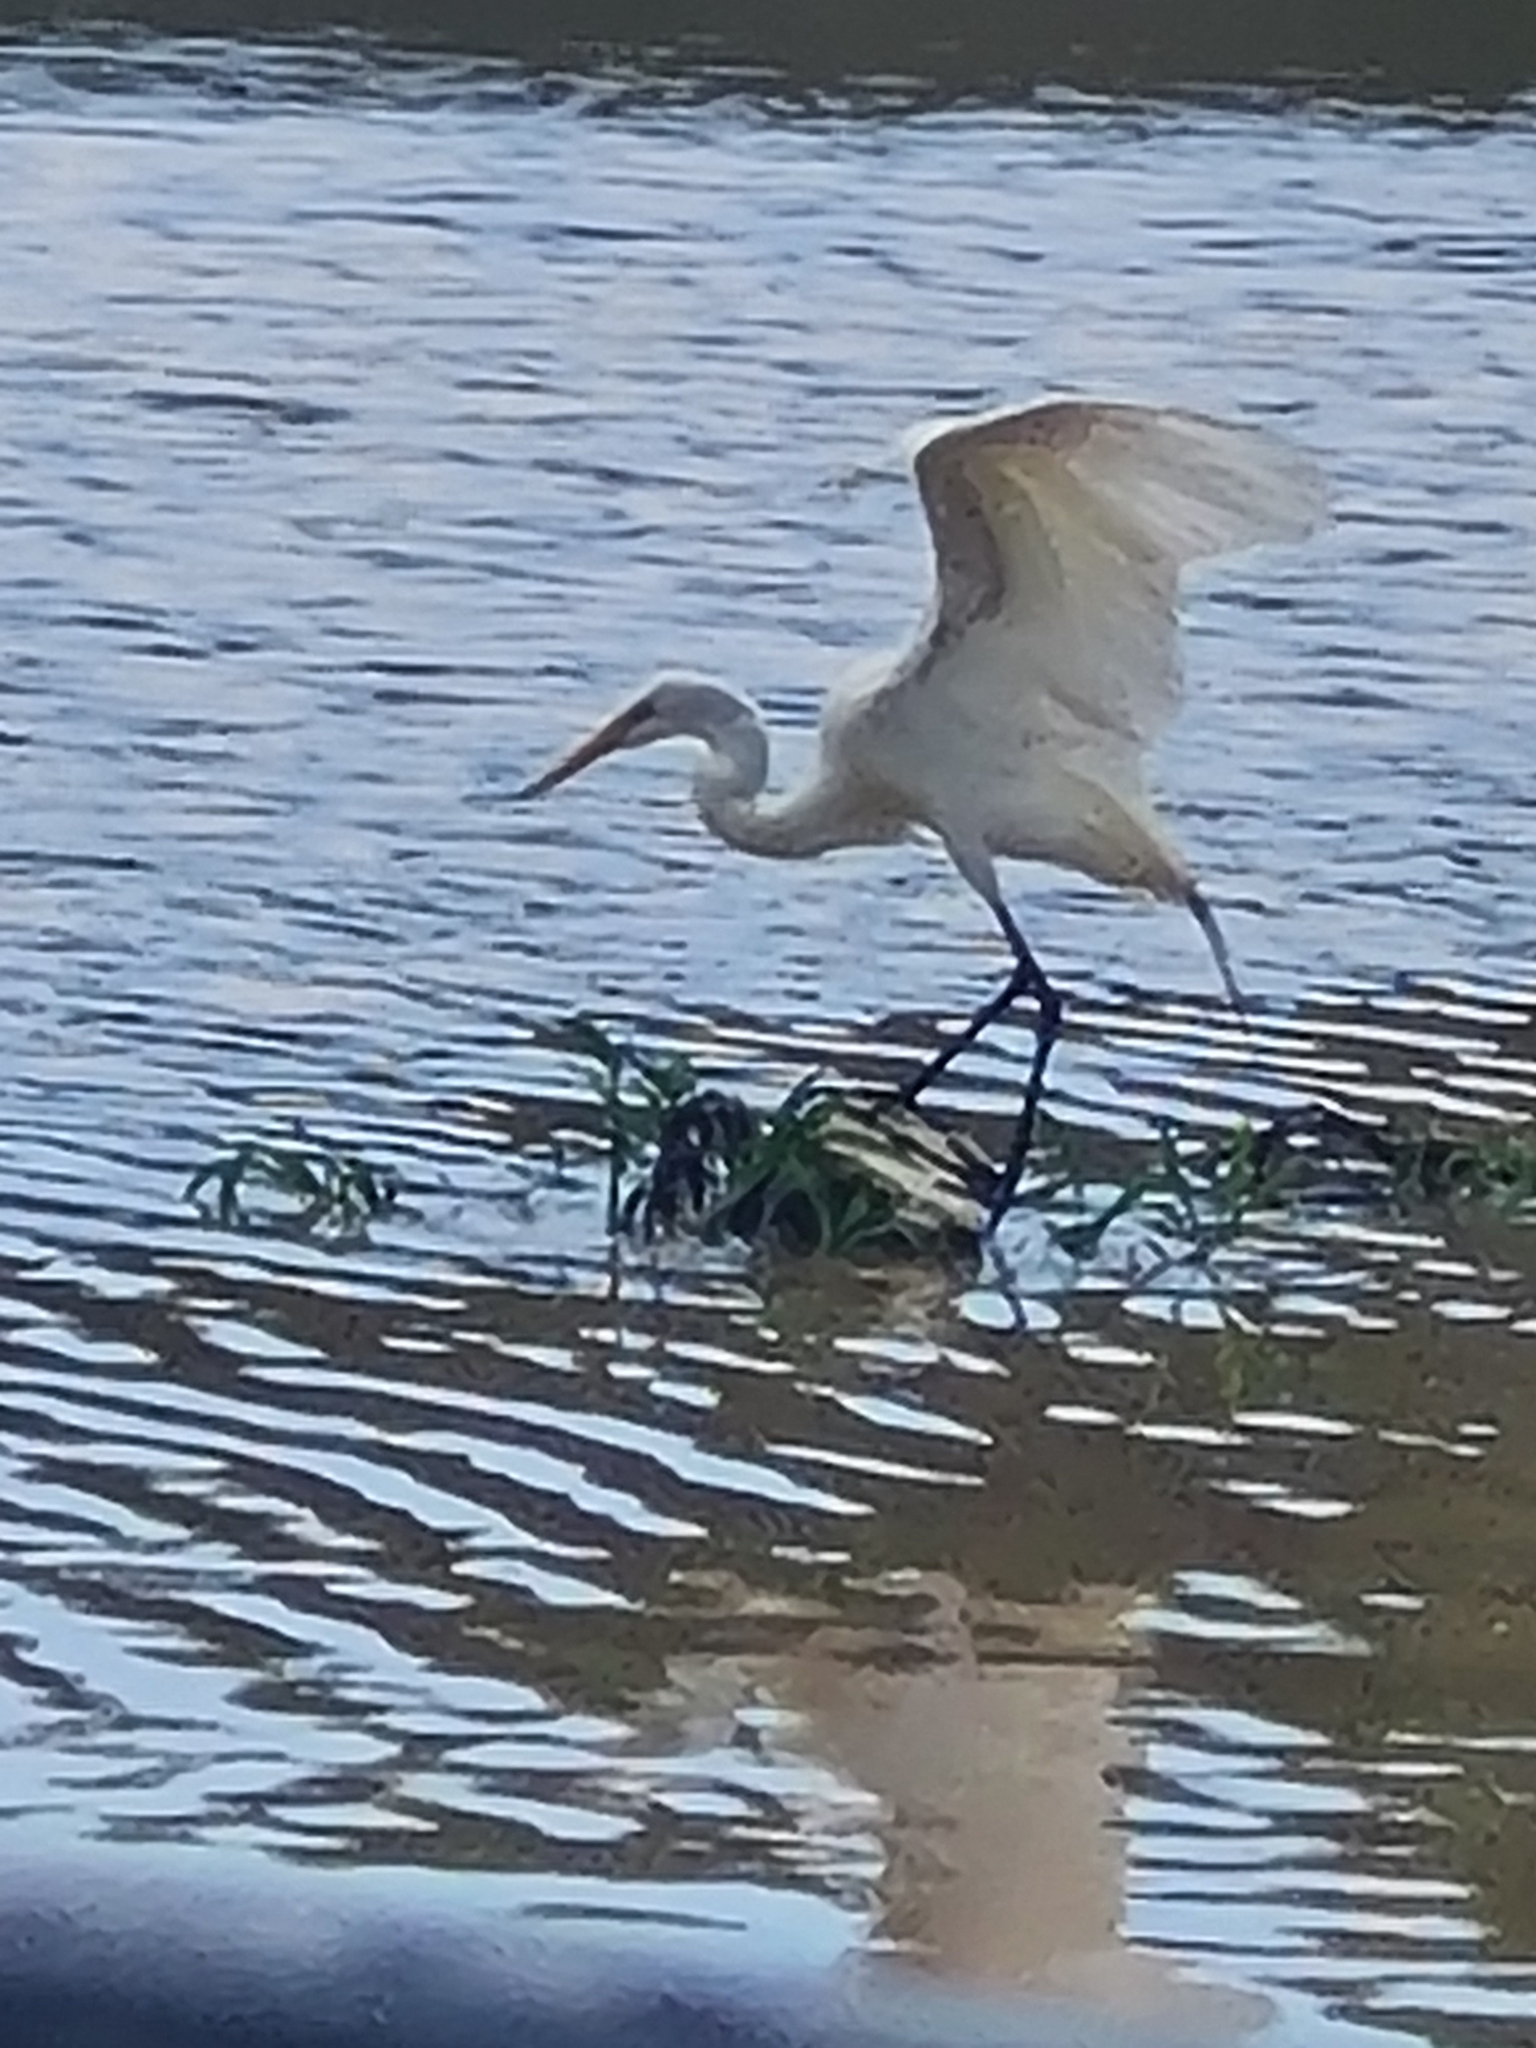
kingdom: Animalia
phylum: Chordata
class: Aves
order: Pelecaniformes
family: Ardeidae
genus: Ardea
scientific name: Ardea alba
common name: Great egret
